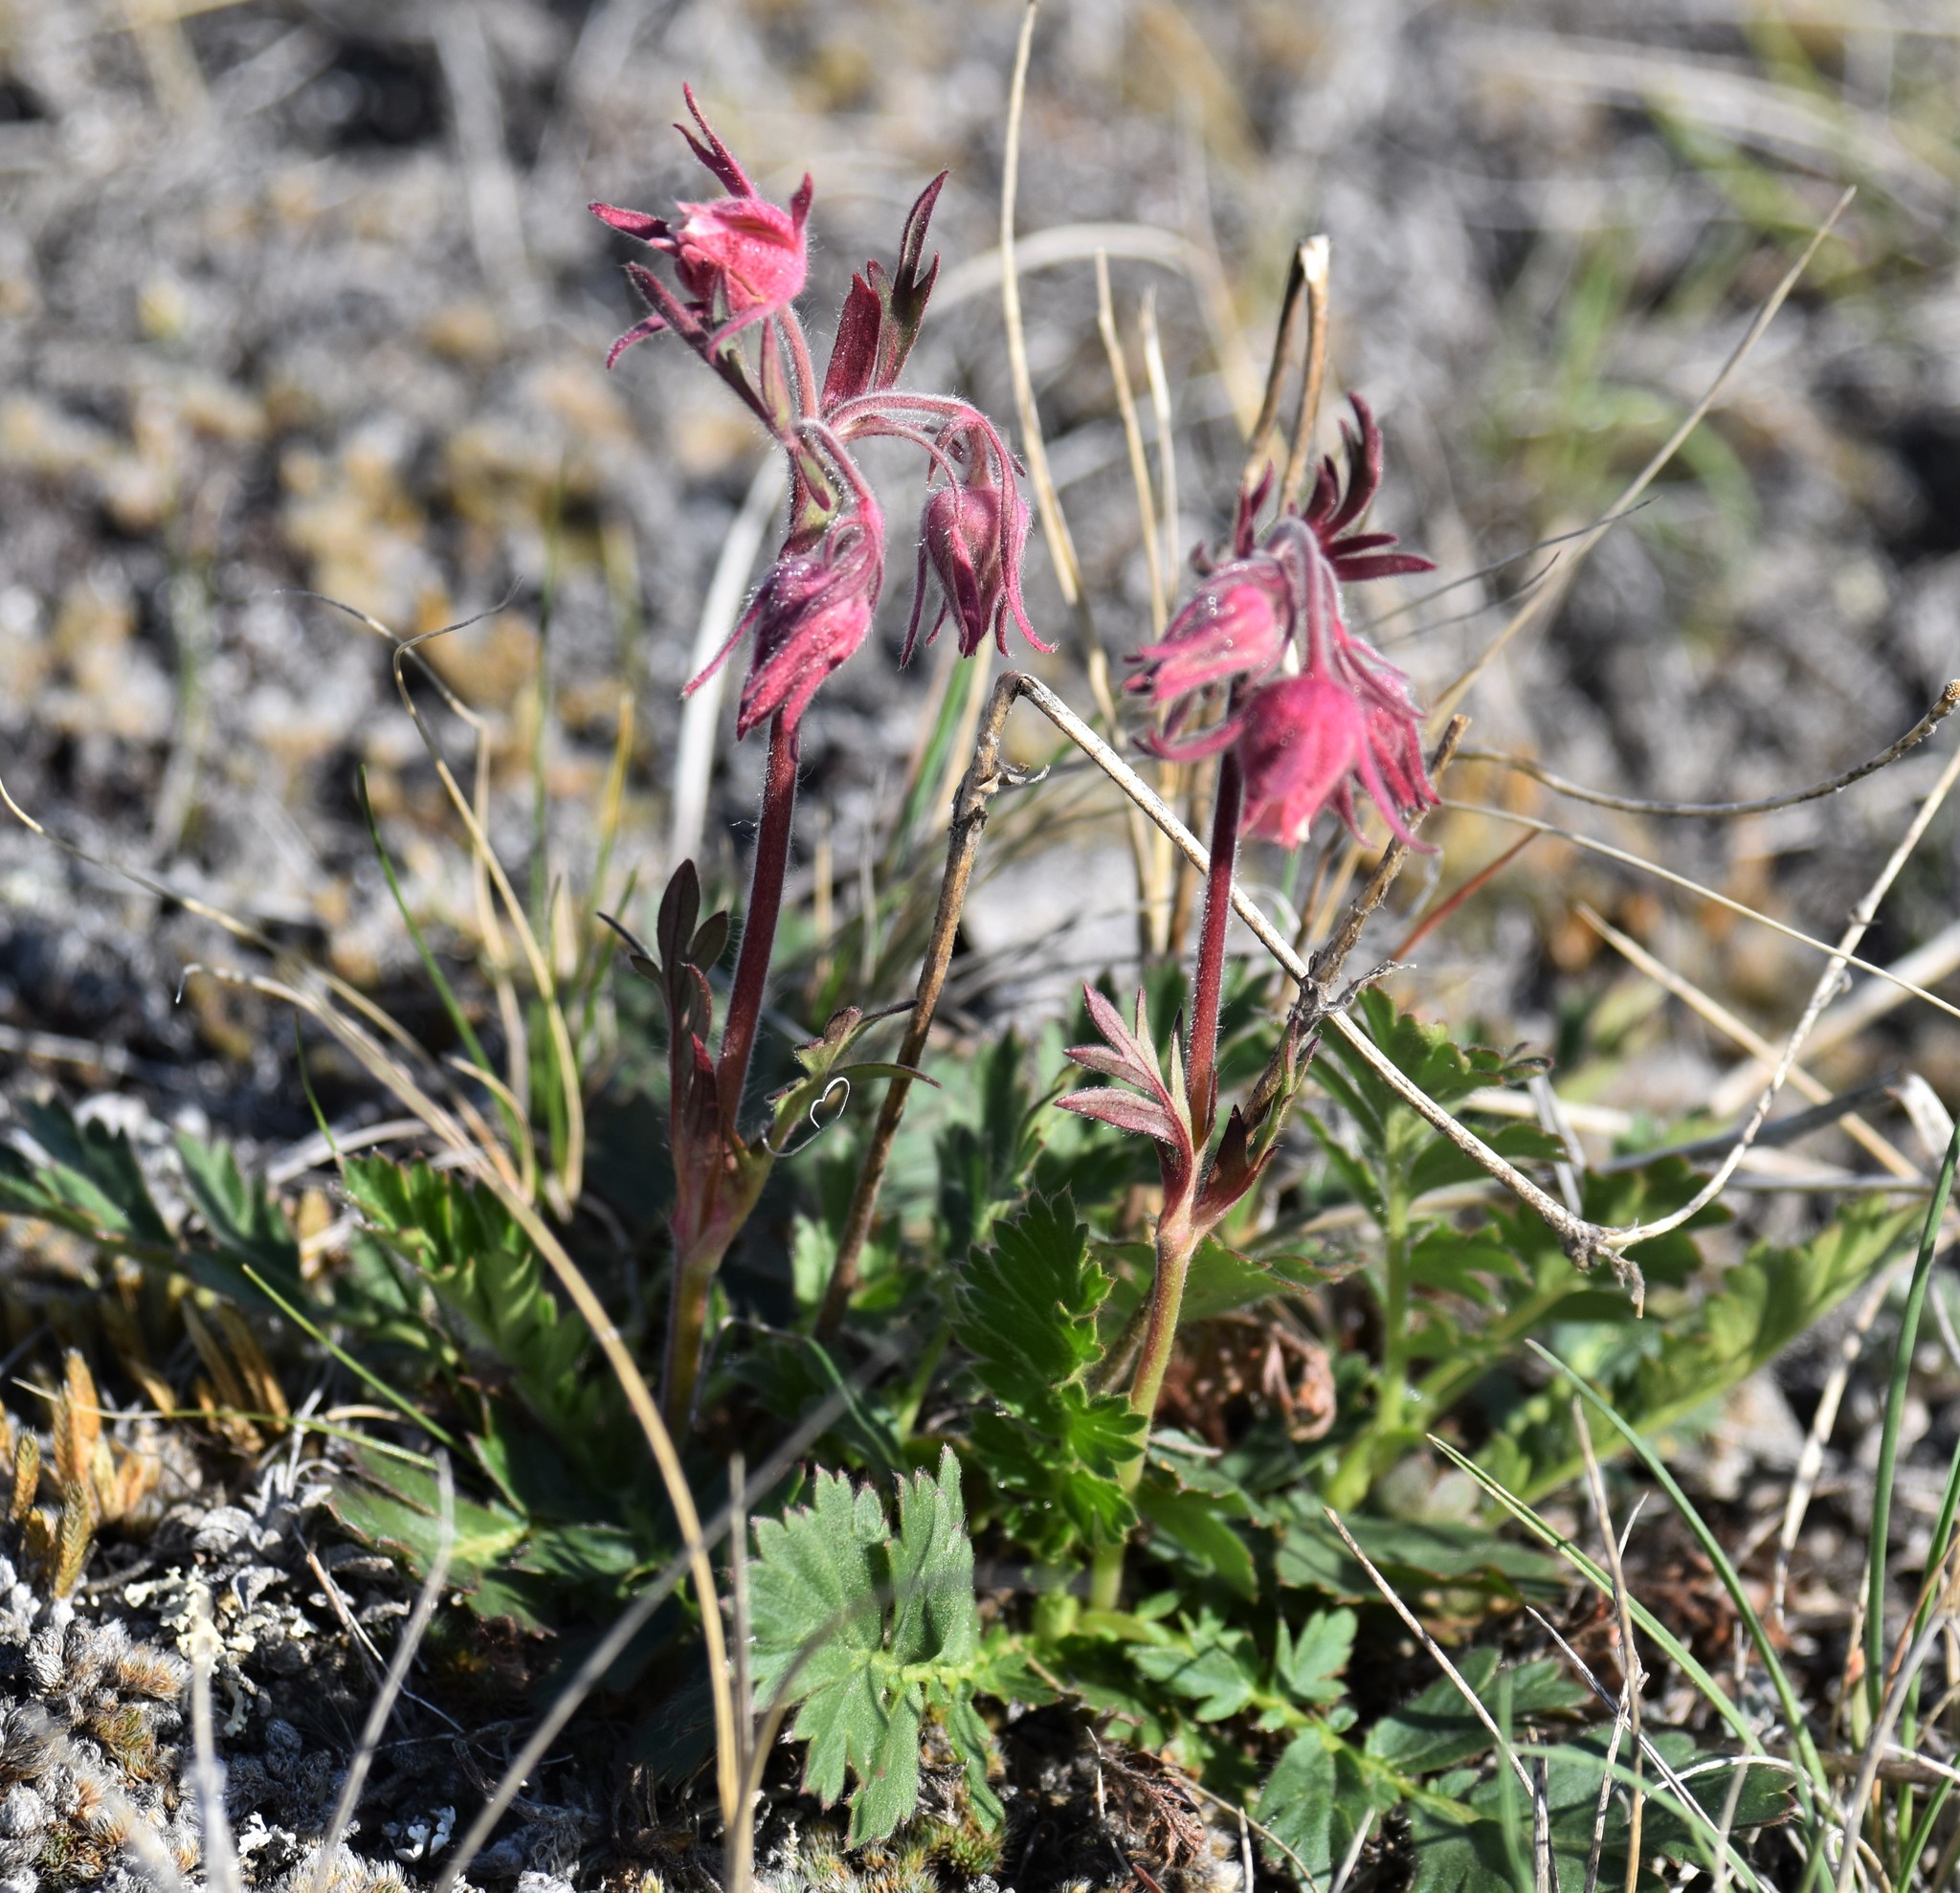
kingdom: Plantae
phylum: Tracheophyta
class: Magnoliopsida
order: Rosales
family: Rosaceae
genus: Geum
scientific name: Geum triflorum
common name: Old man's whiskers
